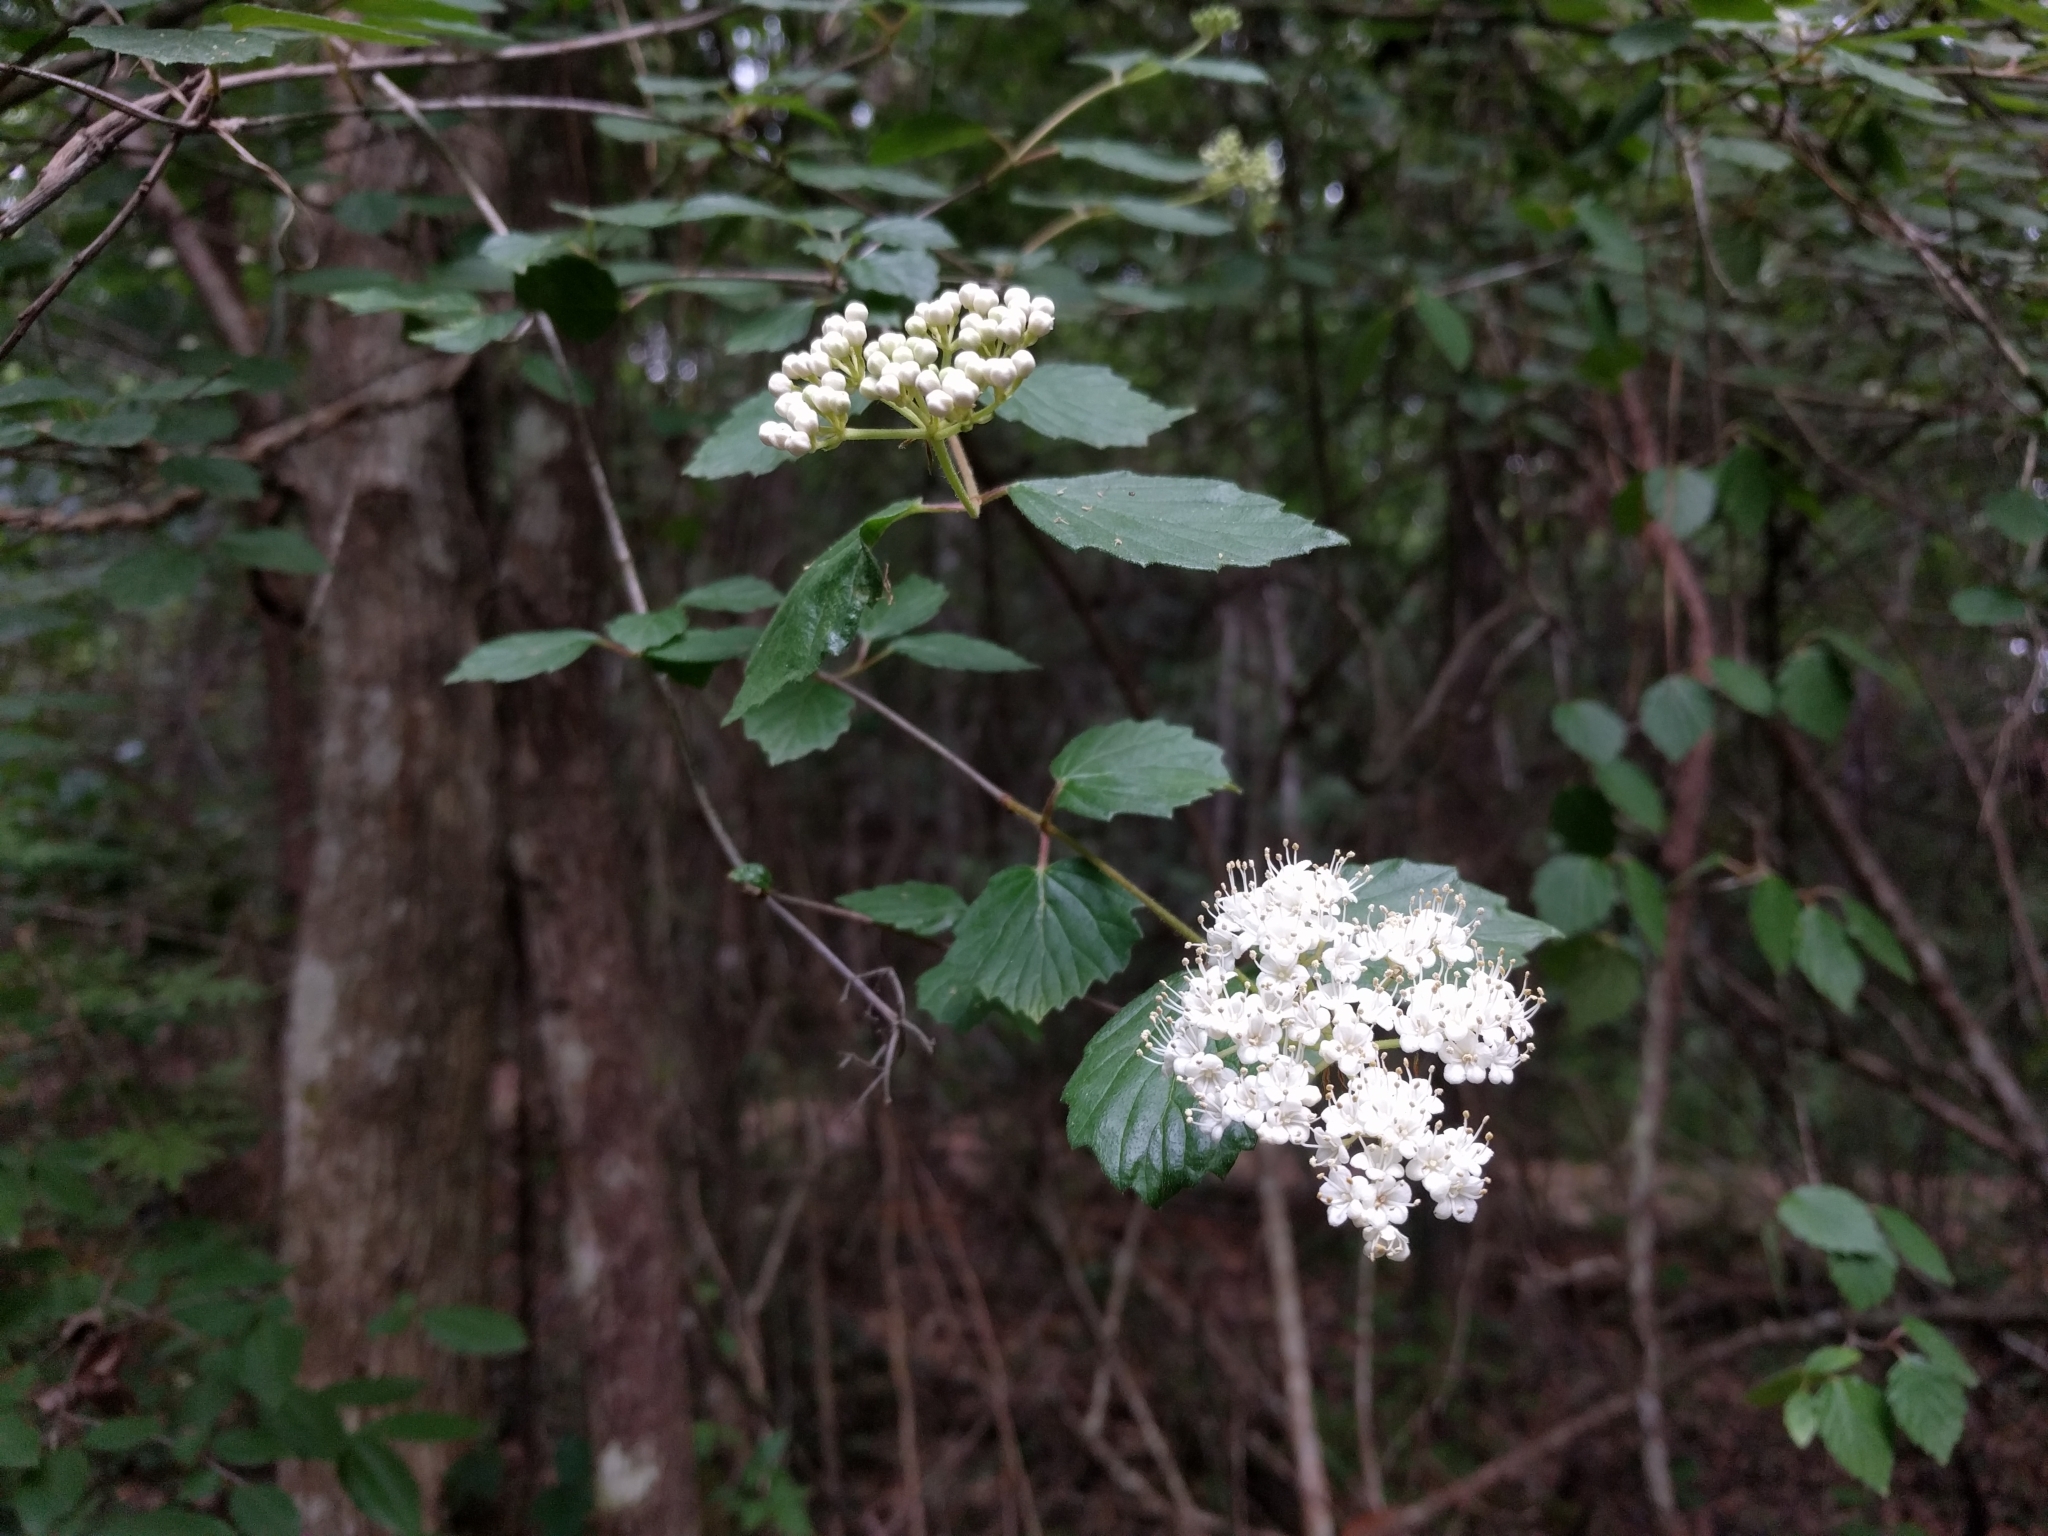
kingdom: Plantae
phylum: Tracheophyta
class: Magnoliopsida
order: Dipsacales
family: Viburnaceae
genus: Viburnum
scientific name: Viburnum scabrellum
